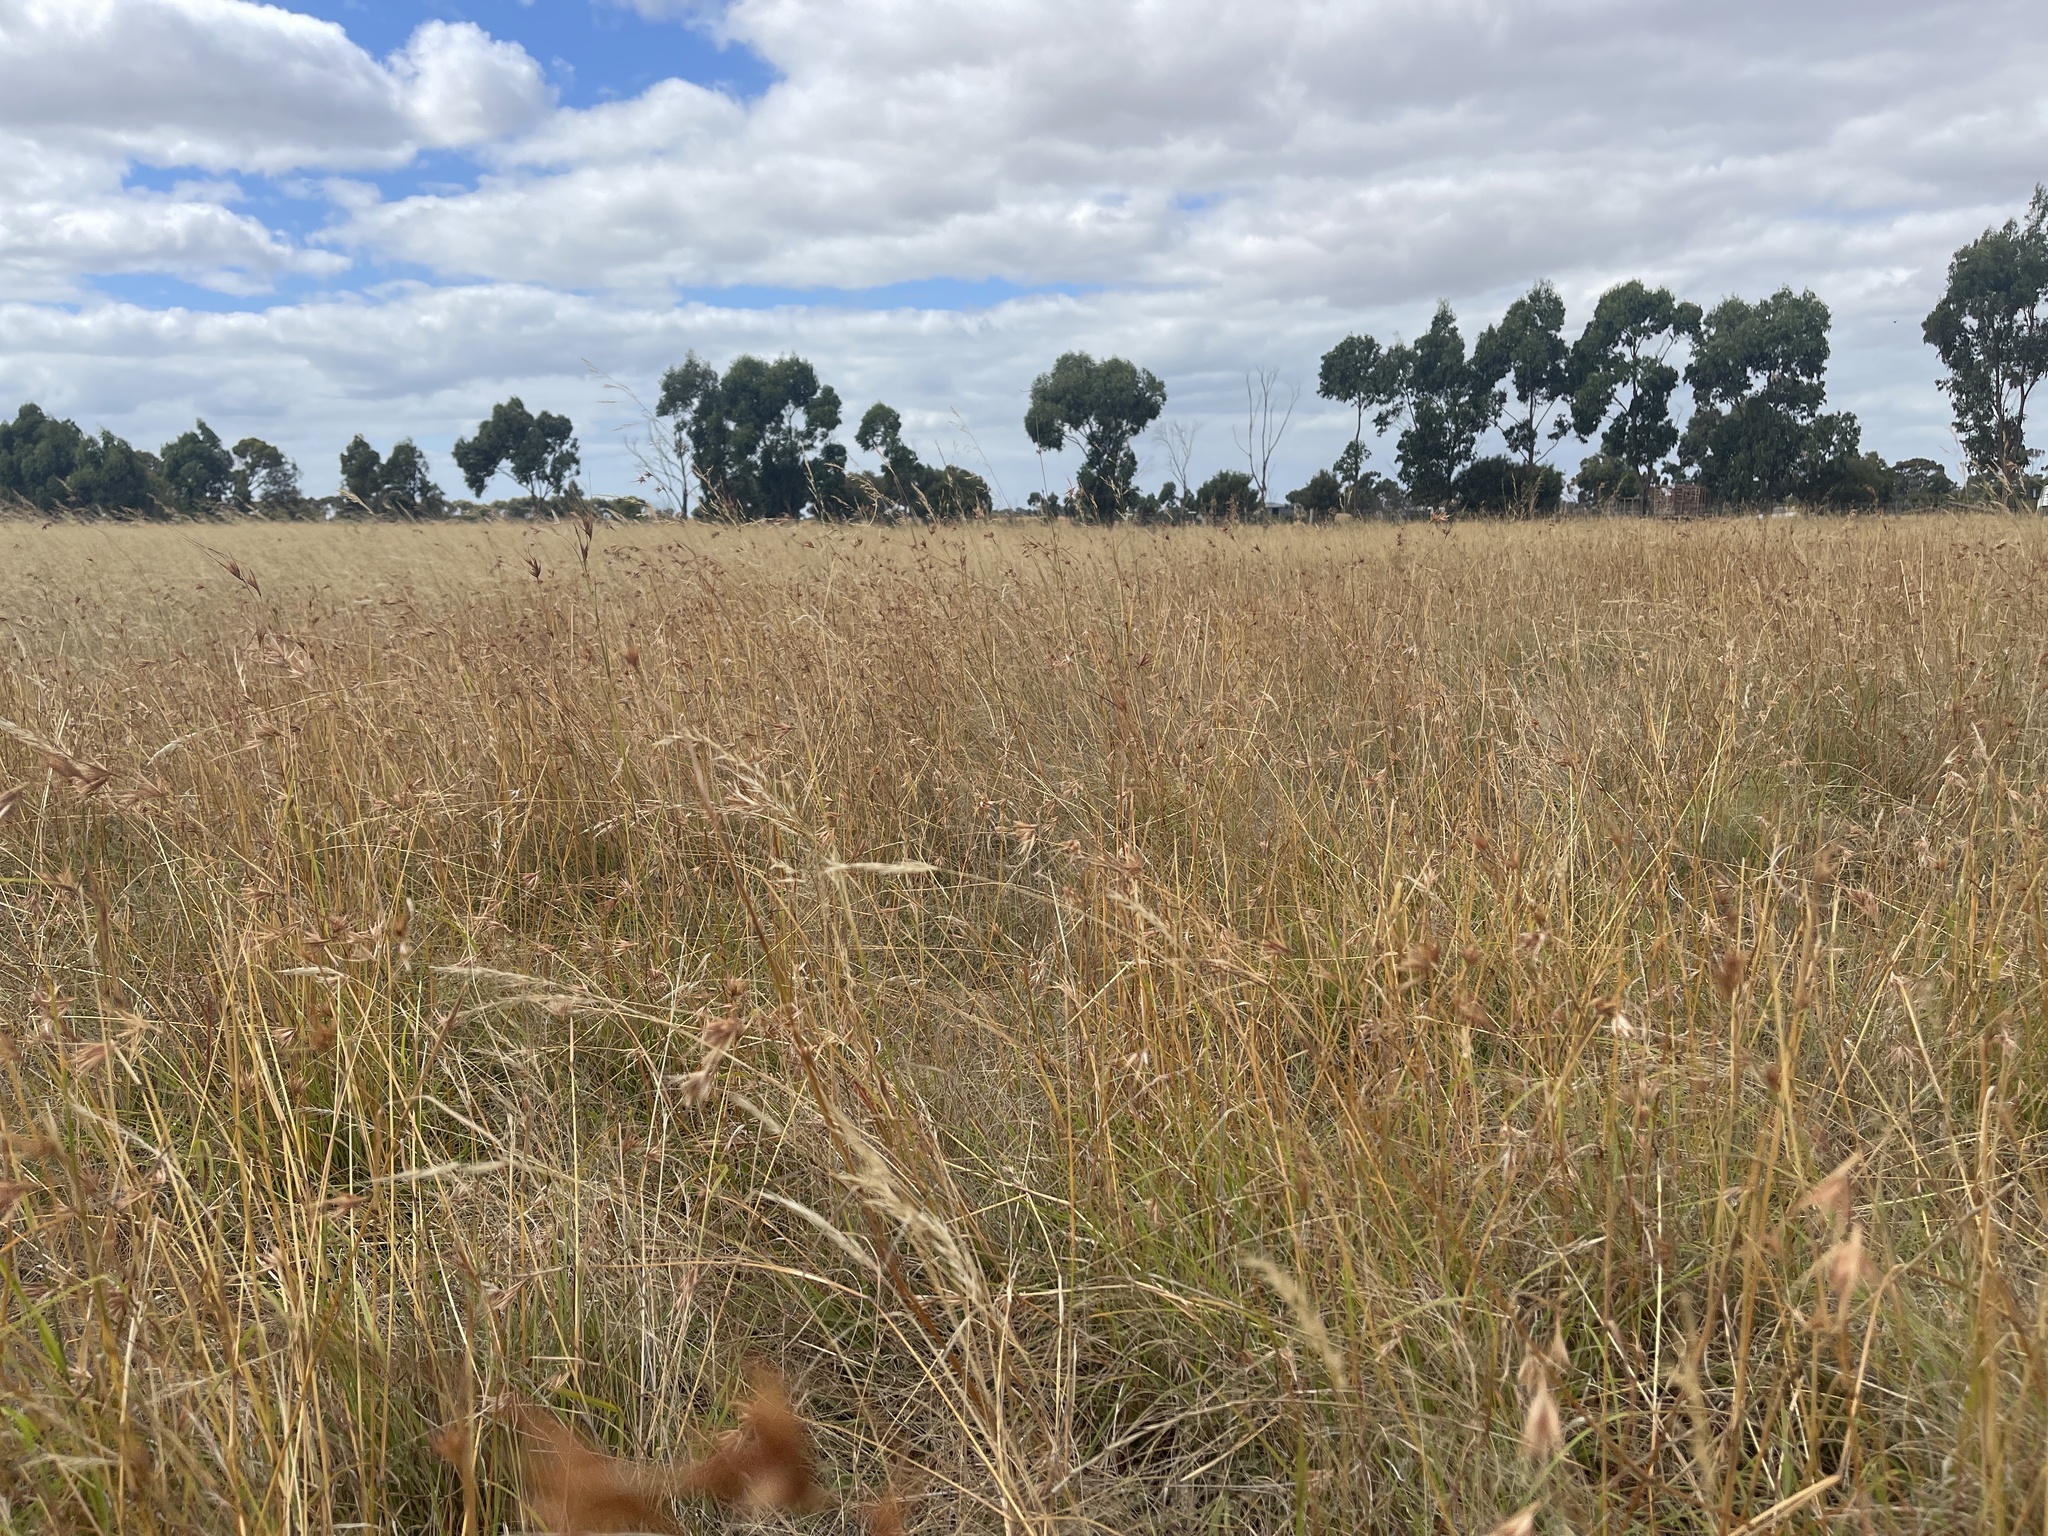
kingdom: Plantae
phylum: Tracheophyta
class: Liliopsida
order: Poales
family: Poaceae
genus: Themeda
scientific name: Themeda triandra
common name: Kangaroo grass
